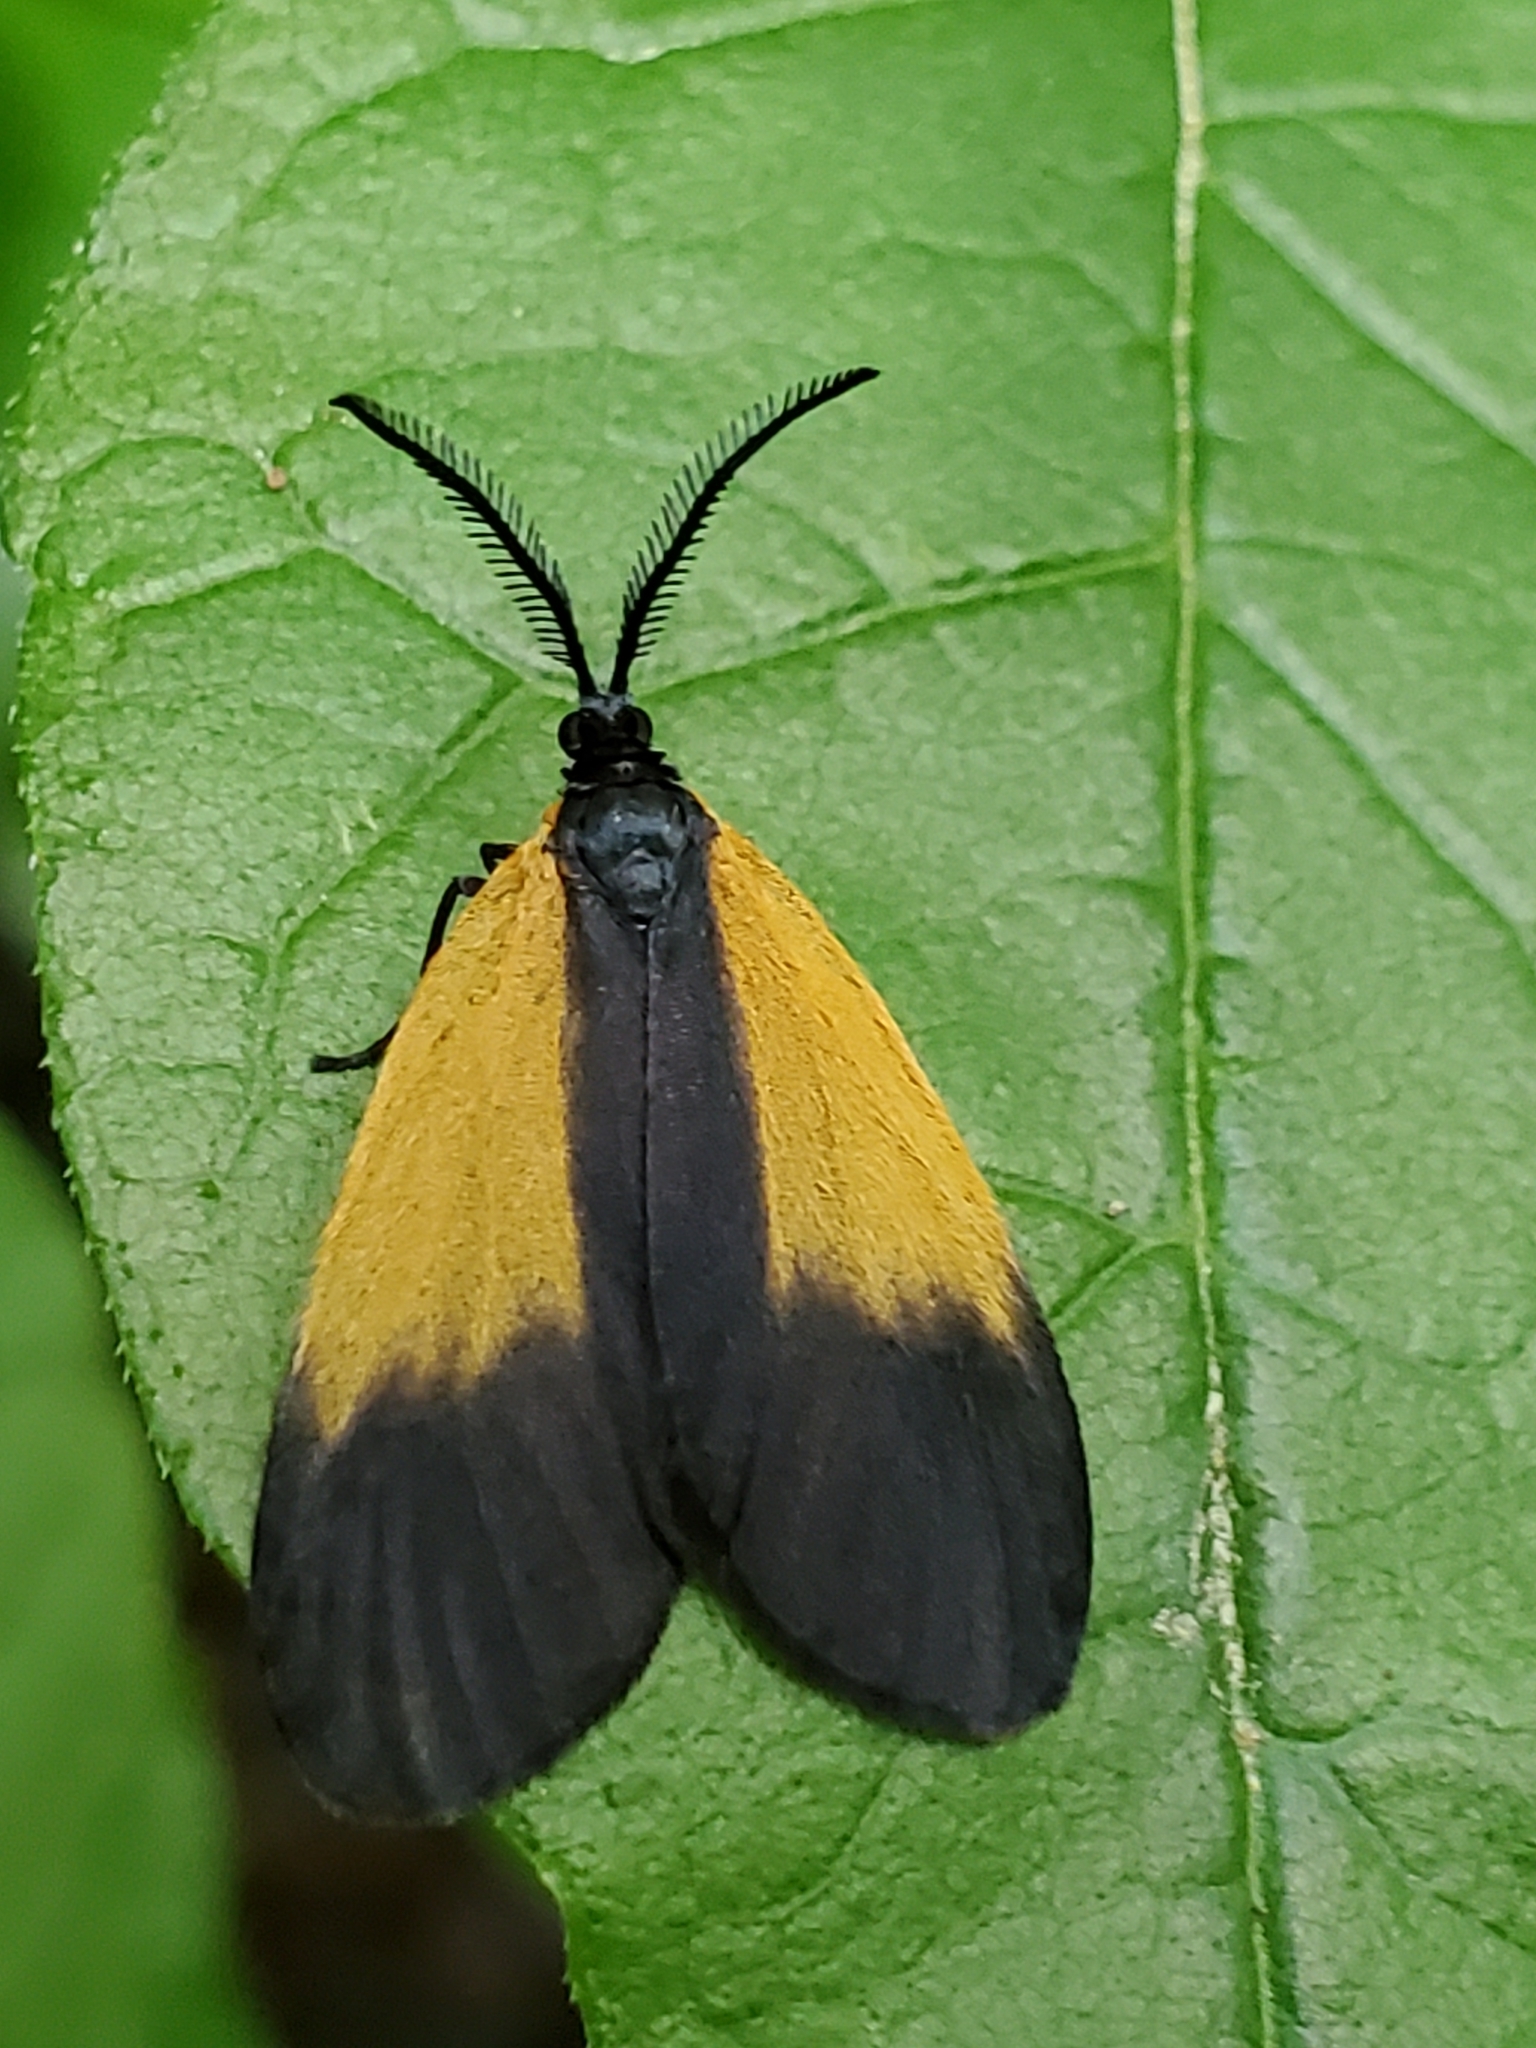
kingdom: Animalia
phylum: Arthropoda
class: Insecta
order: Lepidoptera
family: Zygaenidae
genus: Malthaca
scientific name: Malthaca dimidiata
